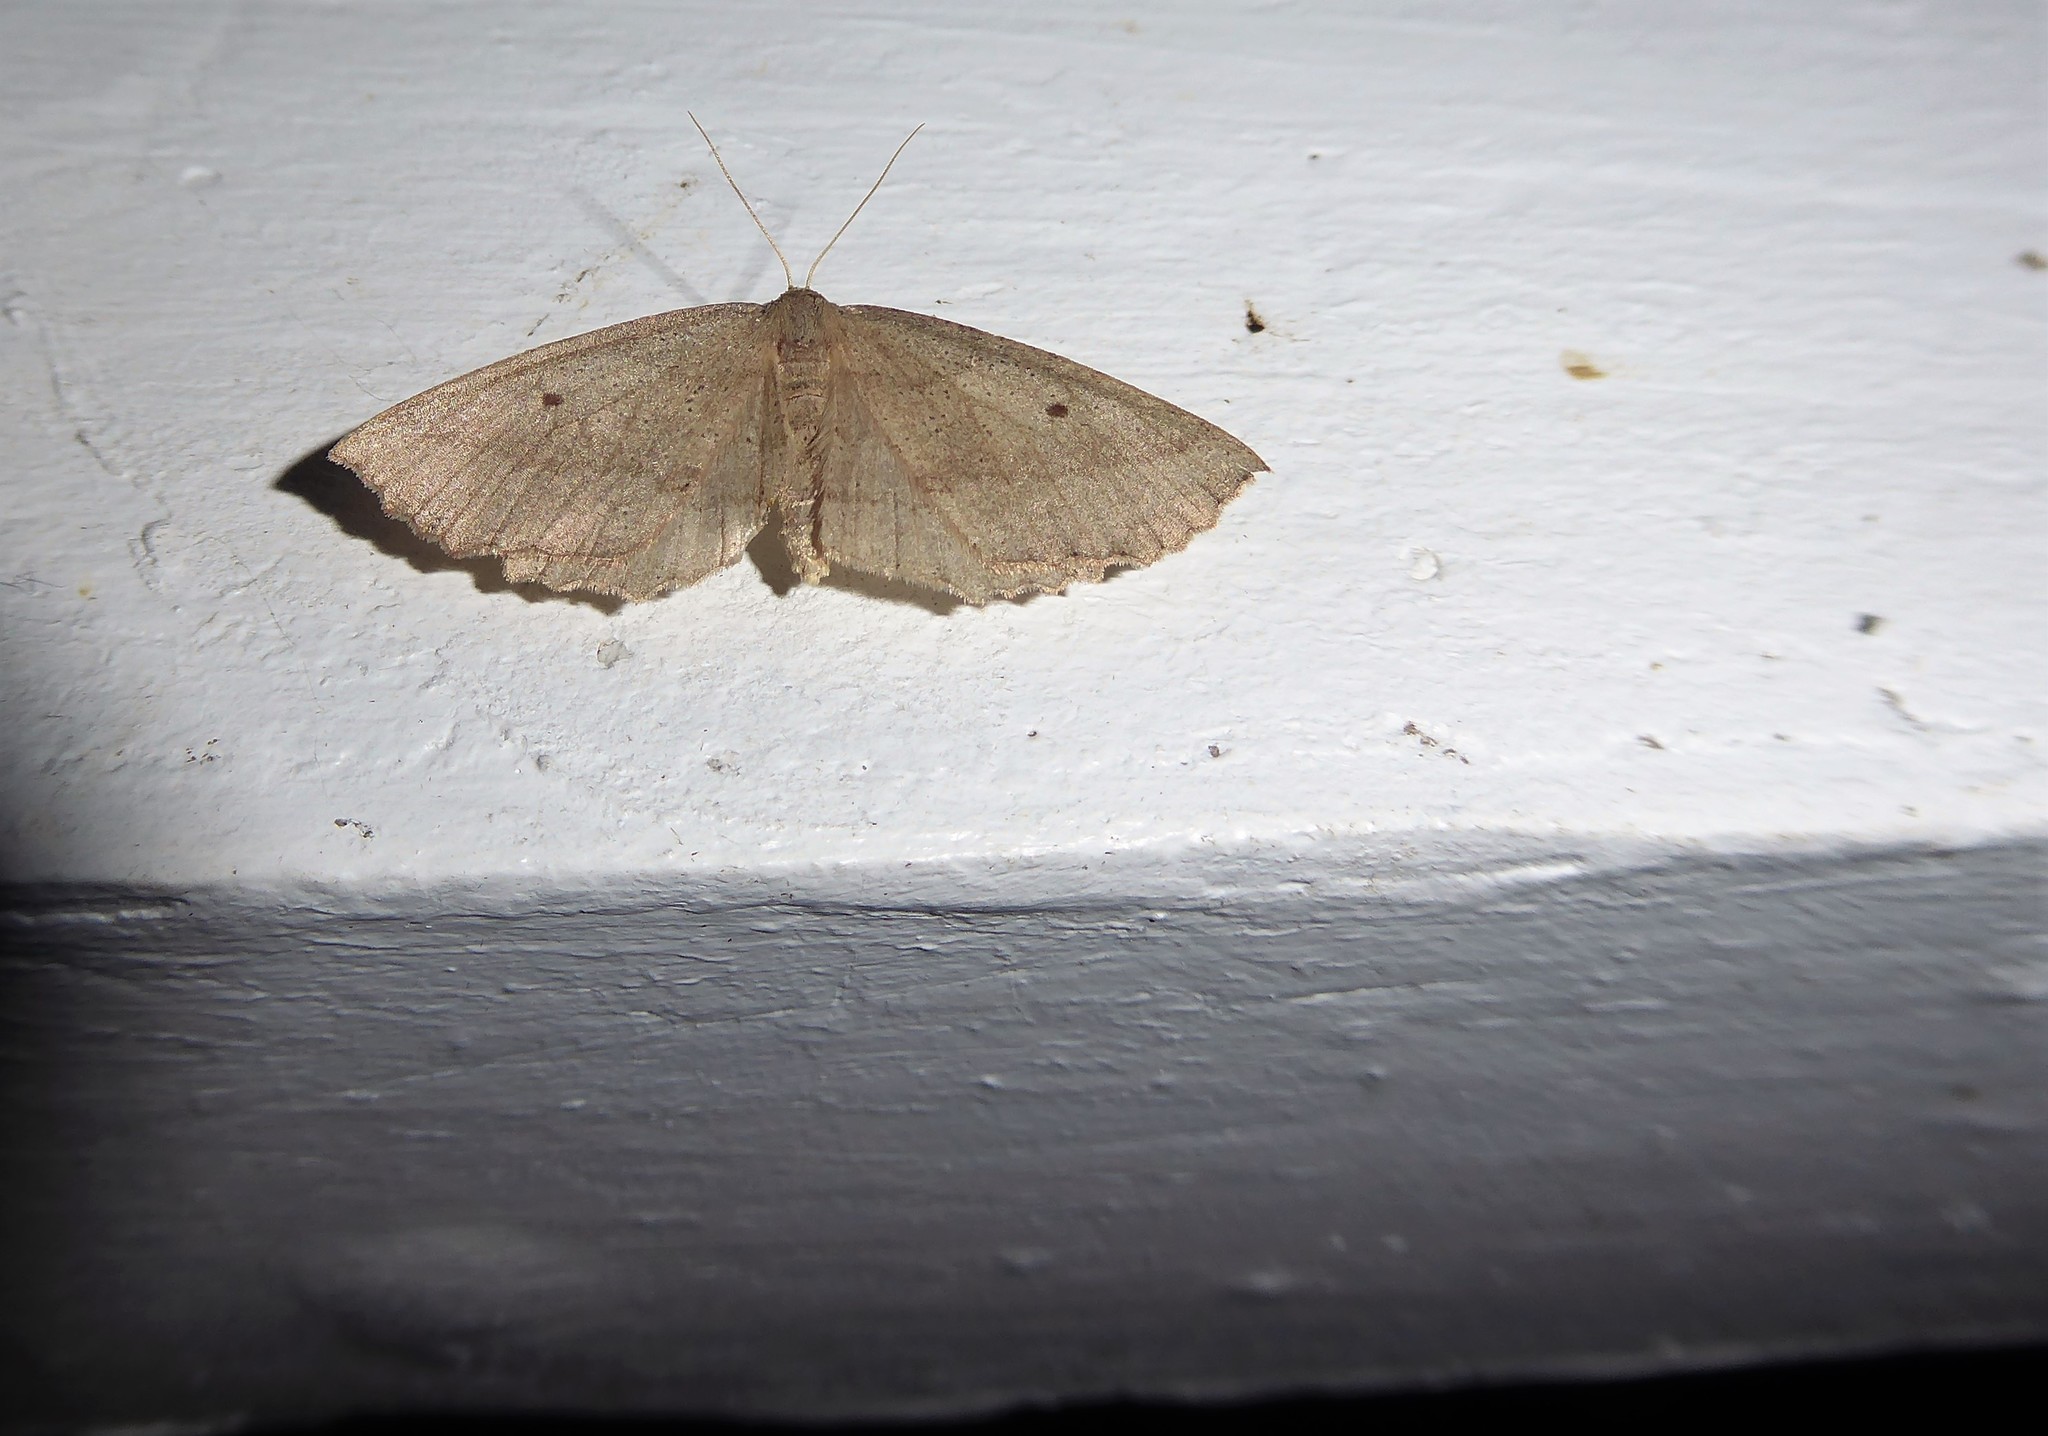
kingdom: Animalia
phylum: Arthropoda
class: Insecta
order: Lepidoptera
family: Geometridae
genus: Xyridacma
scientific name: Xyridacma veronicae
